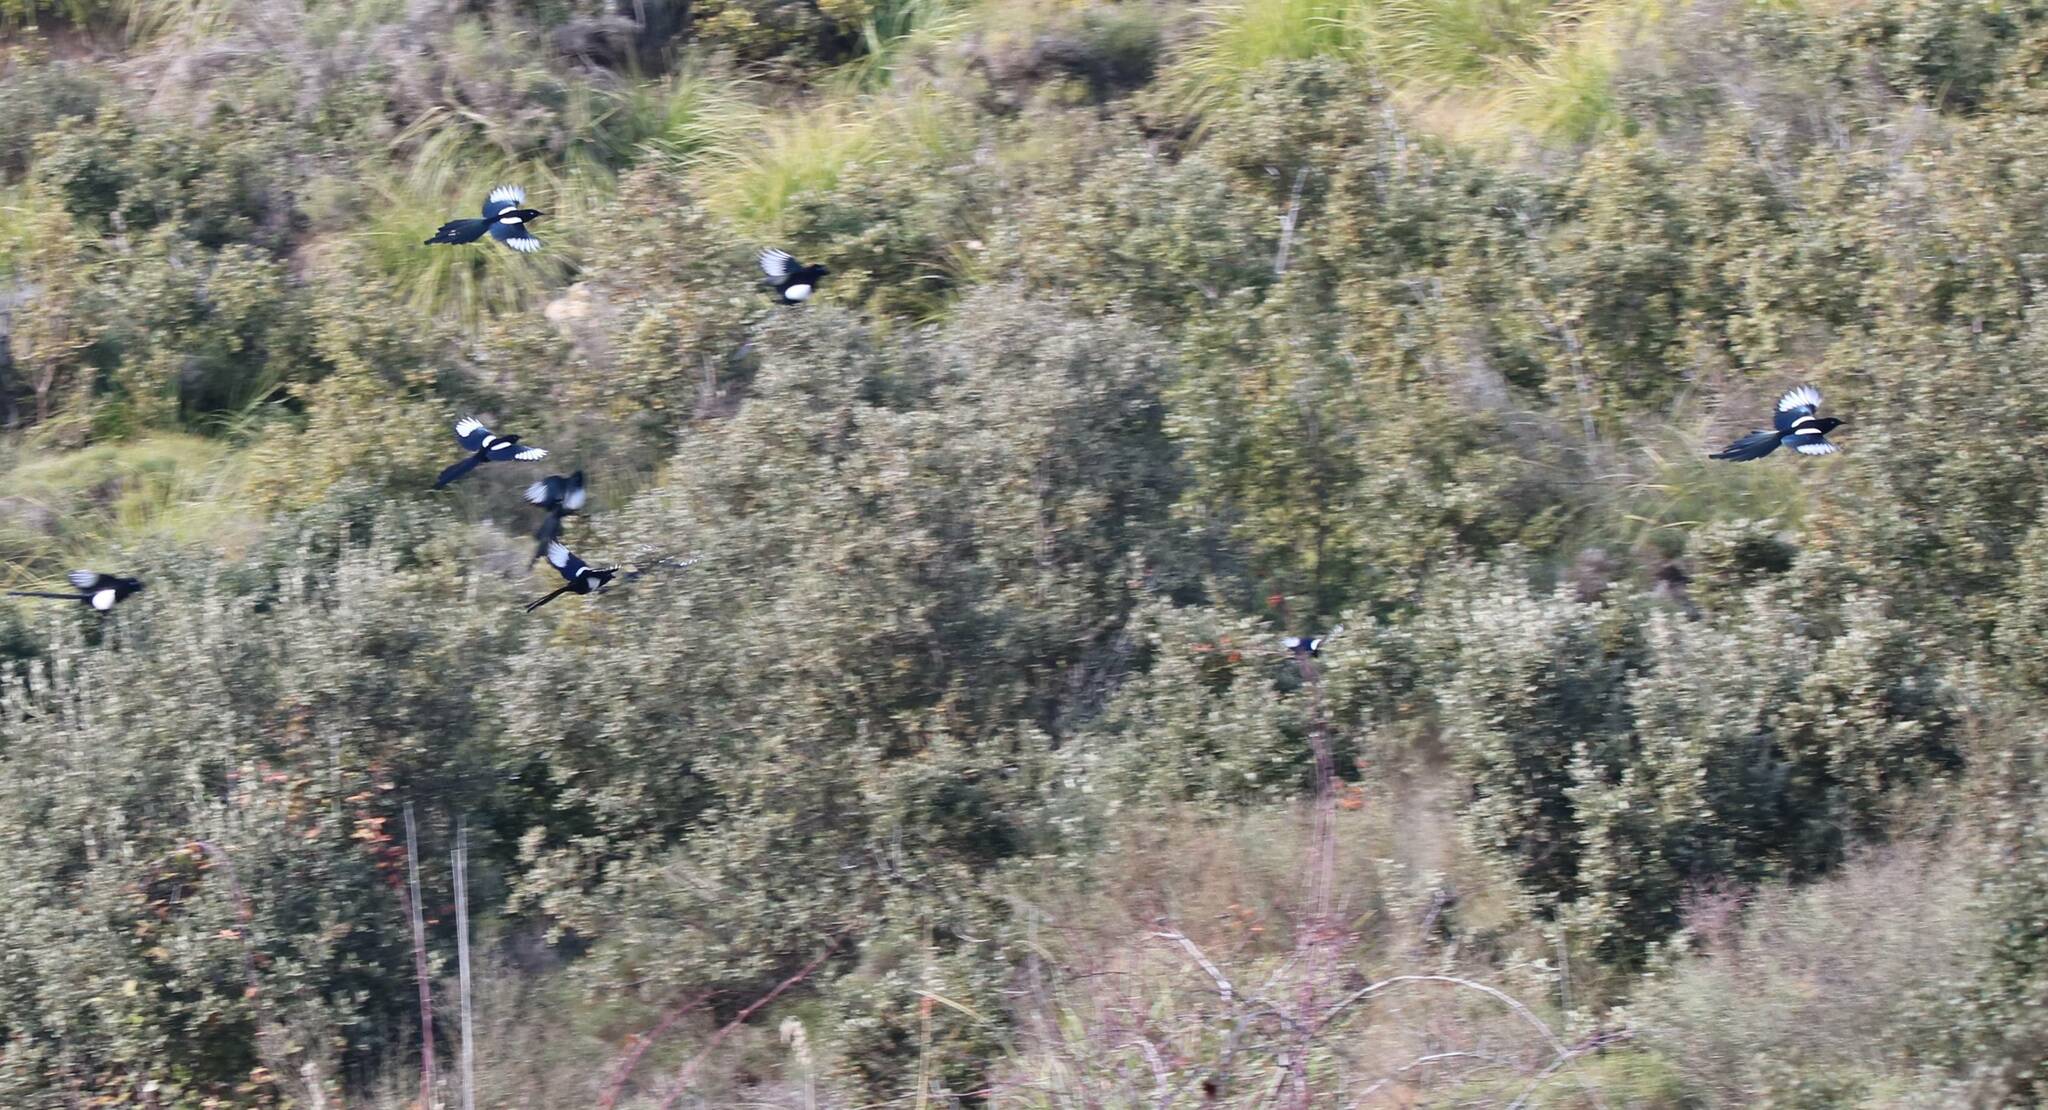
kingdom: Animalia
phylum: Chordata
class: Aves
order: Passeriformes
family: Corvidae
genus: Pica
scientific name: Pica mauritanica
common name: Maghreb magpie
